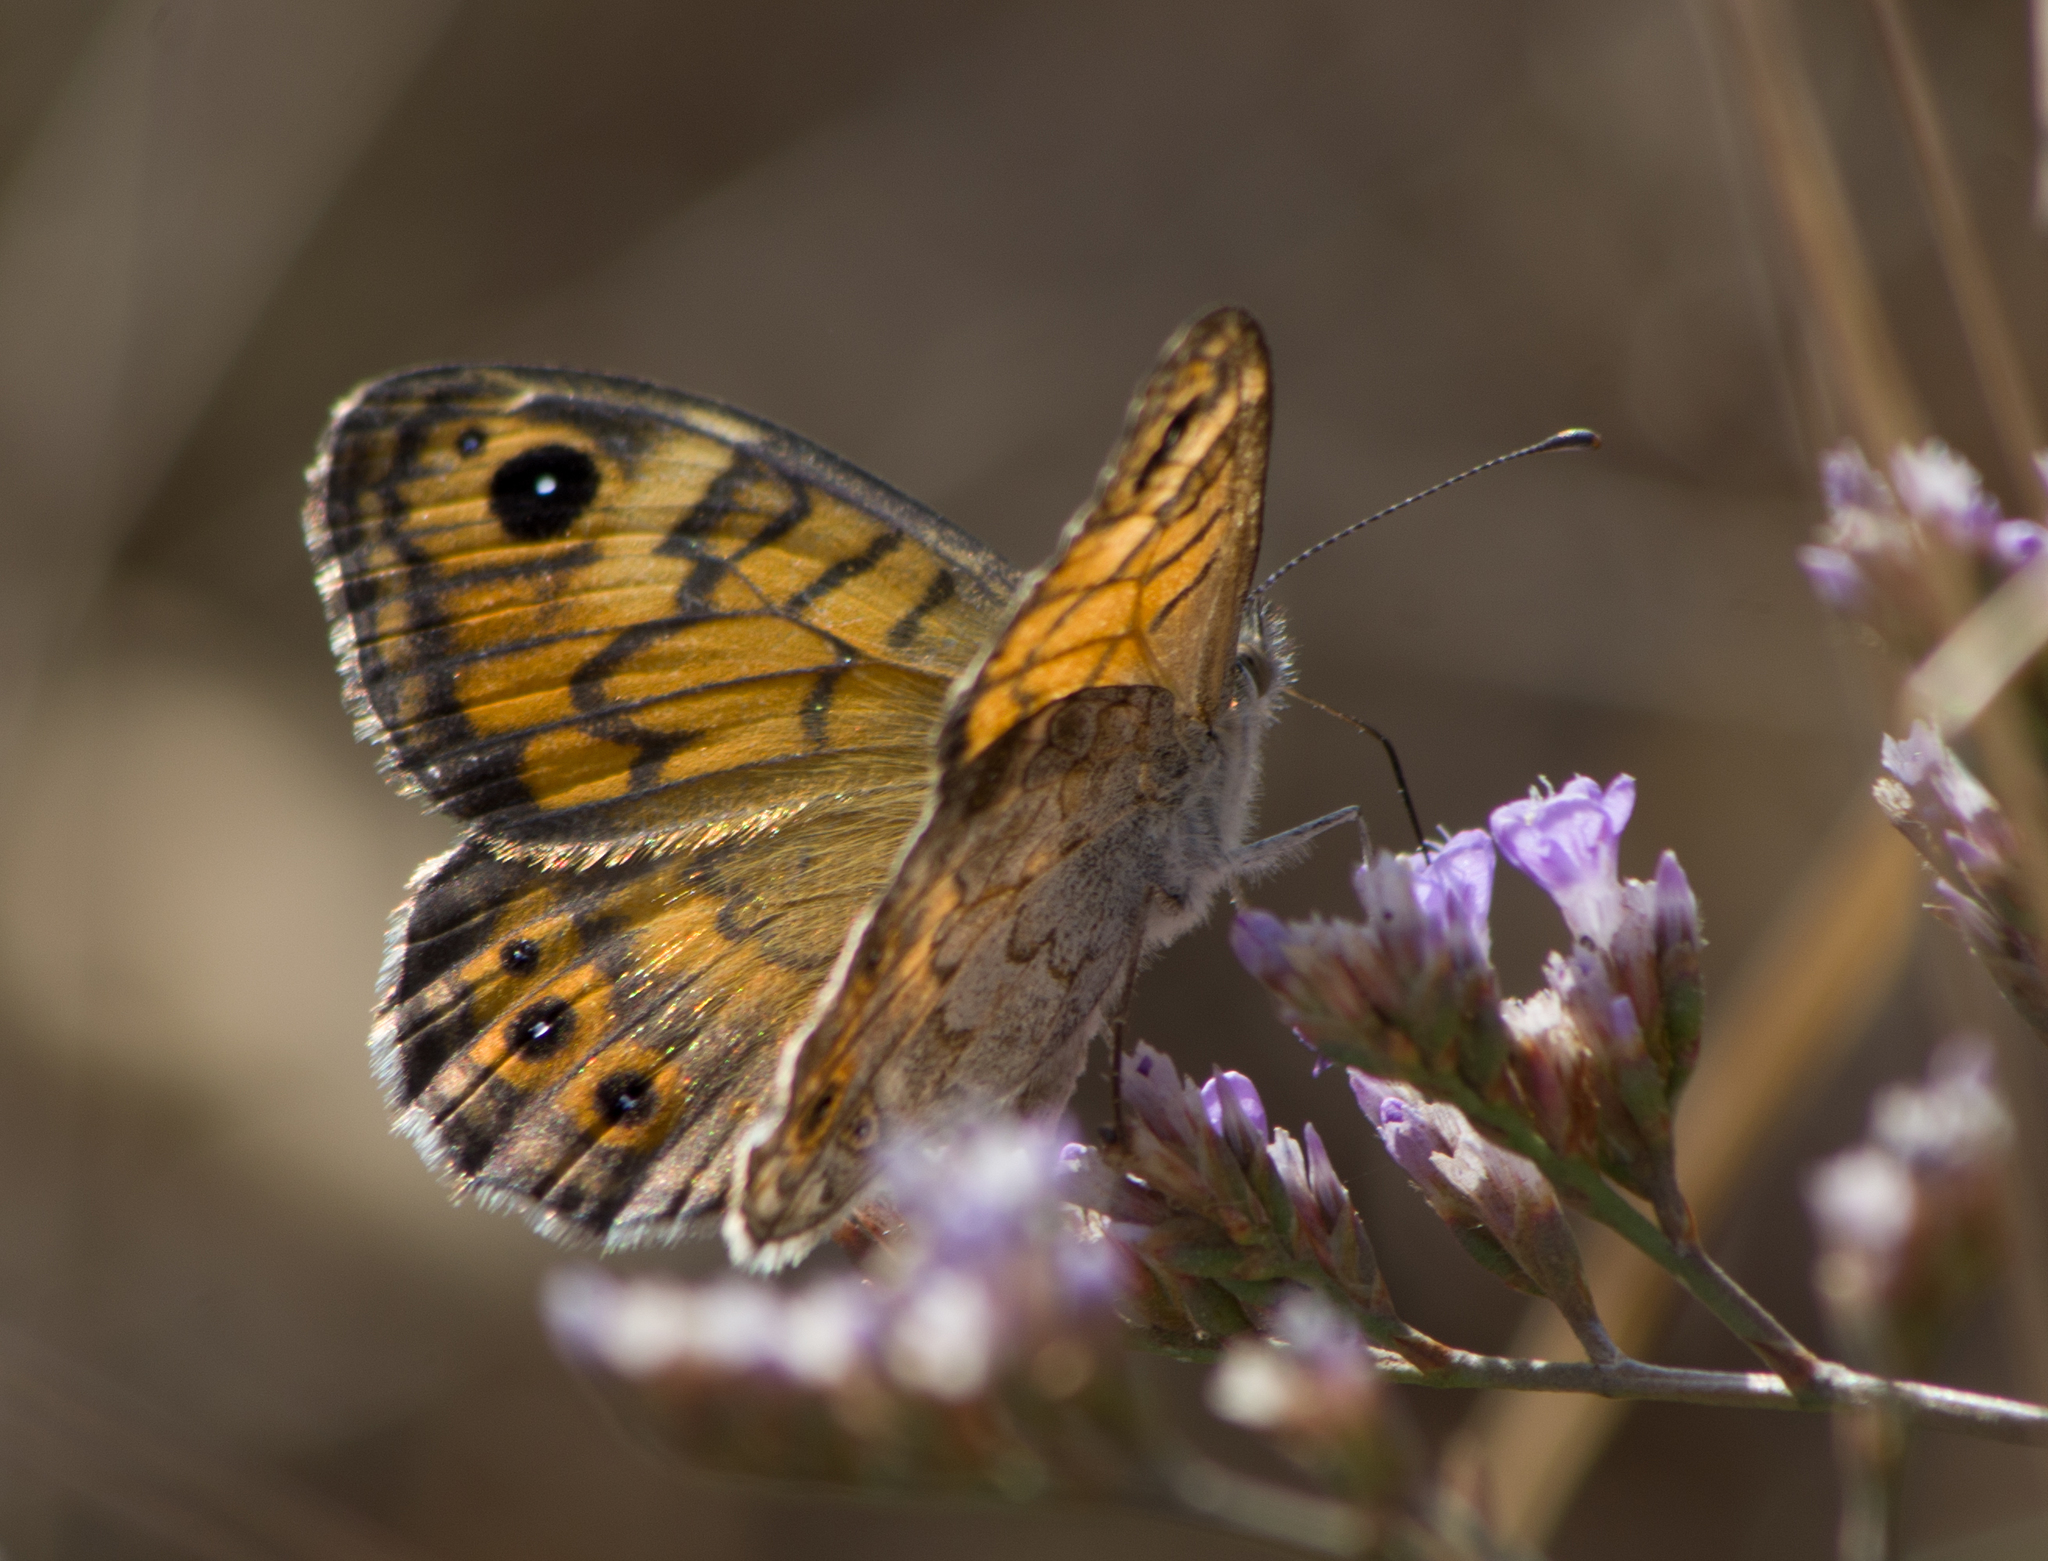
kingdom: Animalia
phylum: Arthropoda
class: Insecta
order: Lepidoptera
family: Nymphalidae
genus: Pararge
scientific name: Pararge Lasiommata megera
